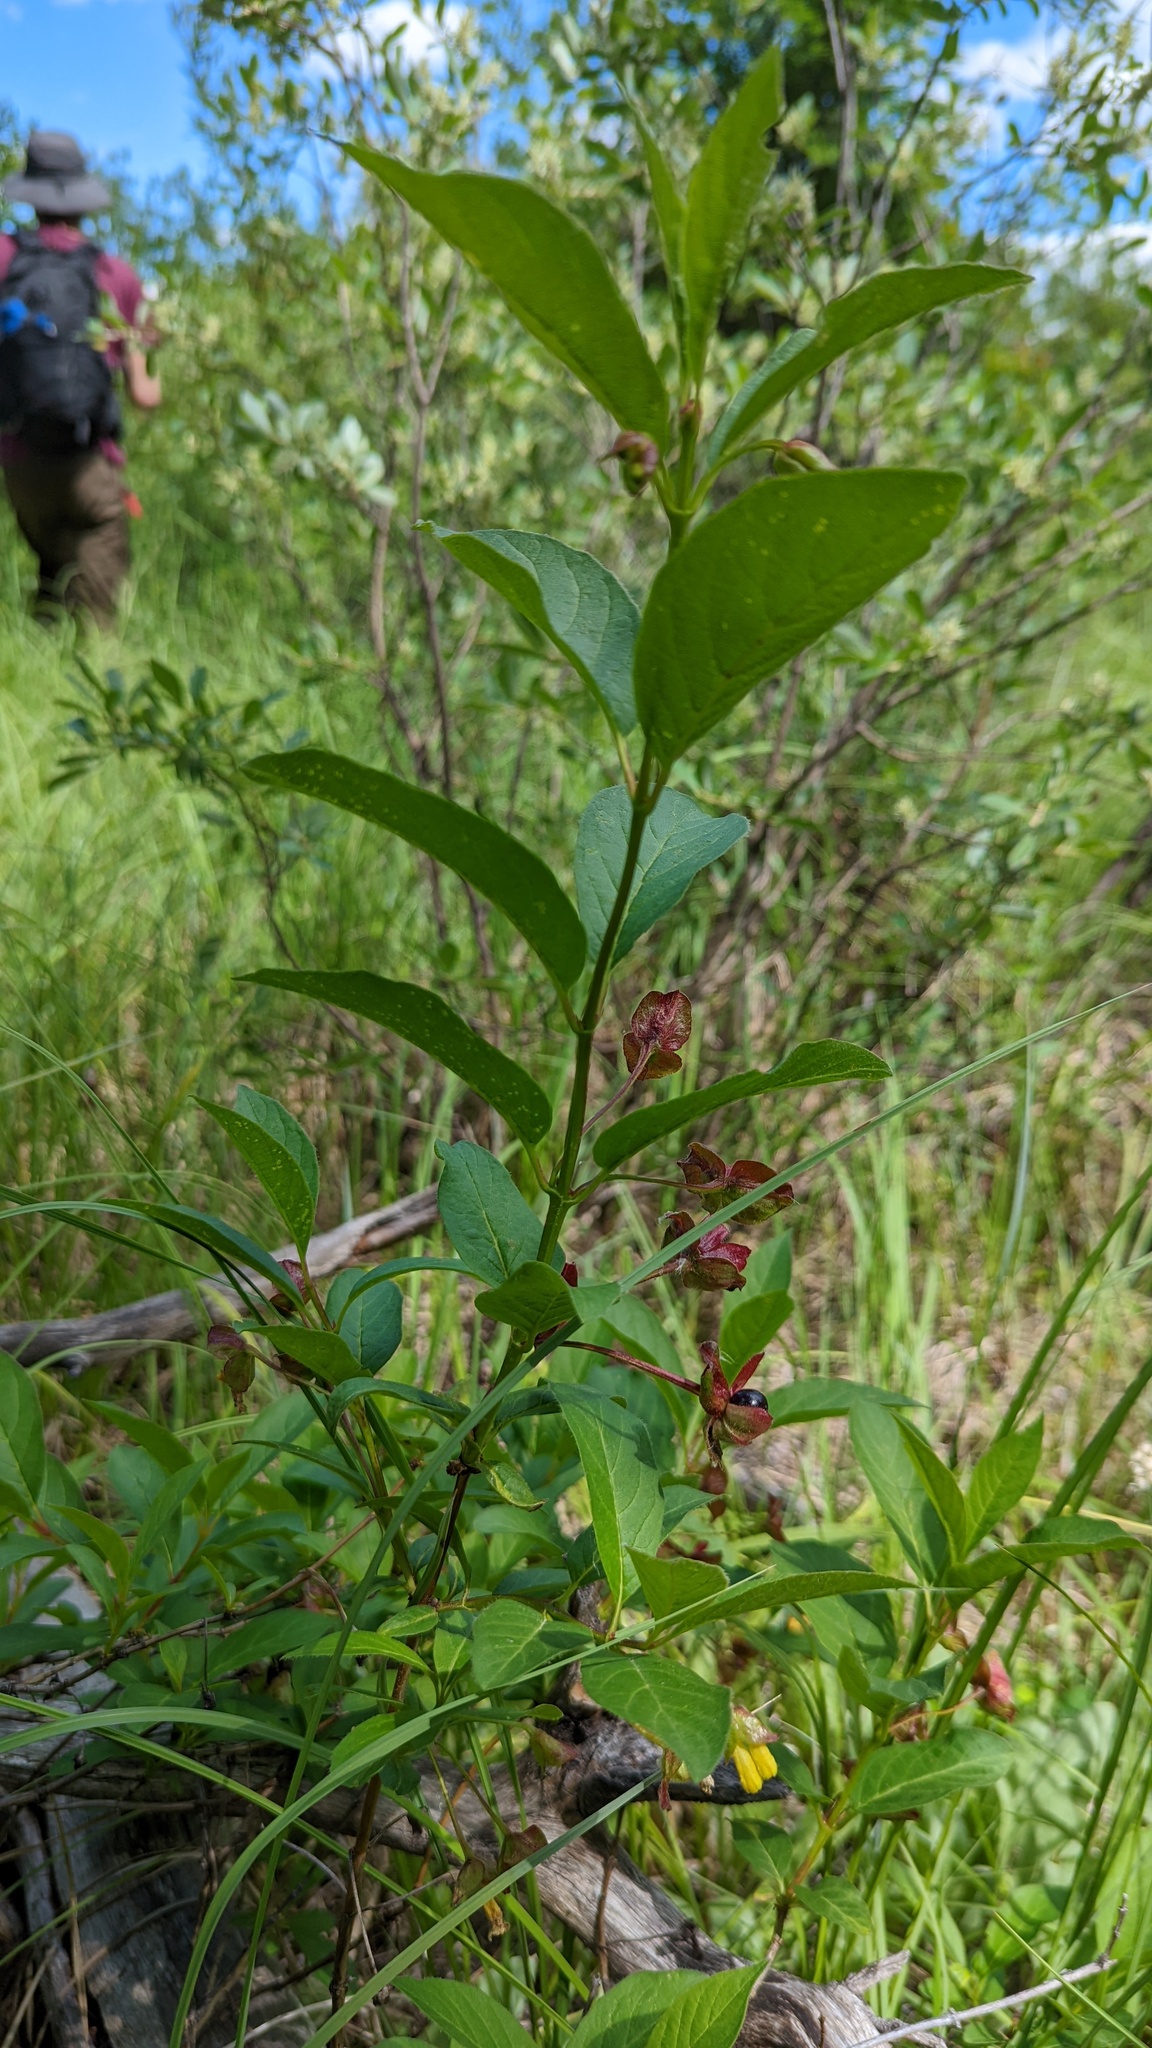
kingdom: Plantae
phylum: Tracheophyta
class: Magnoliopsida
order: Dipsacales
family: Caprifoliaceae
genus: Lonicera
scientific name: Lonicera involucrata
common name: Californian honeysuckle
